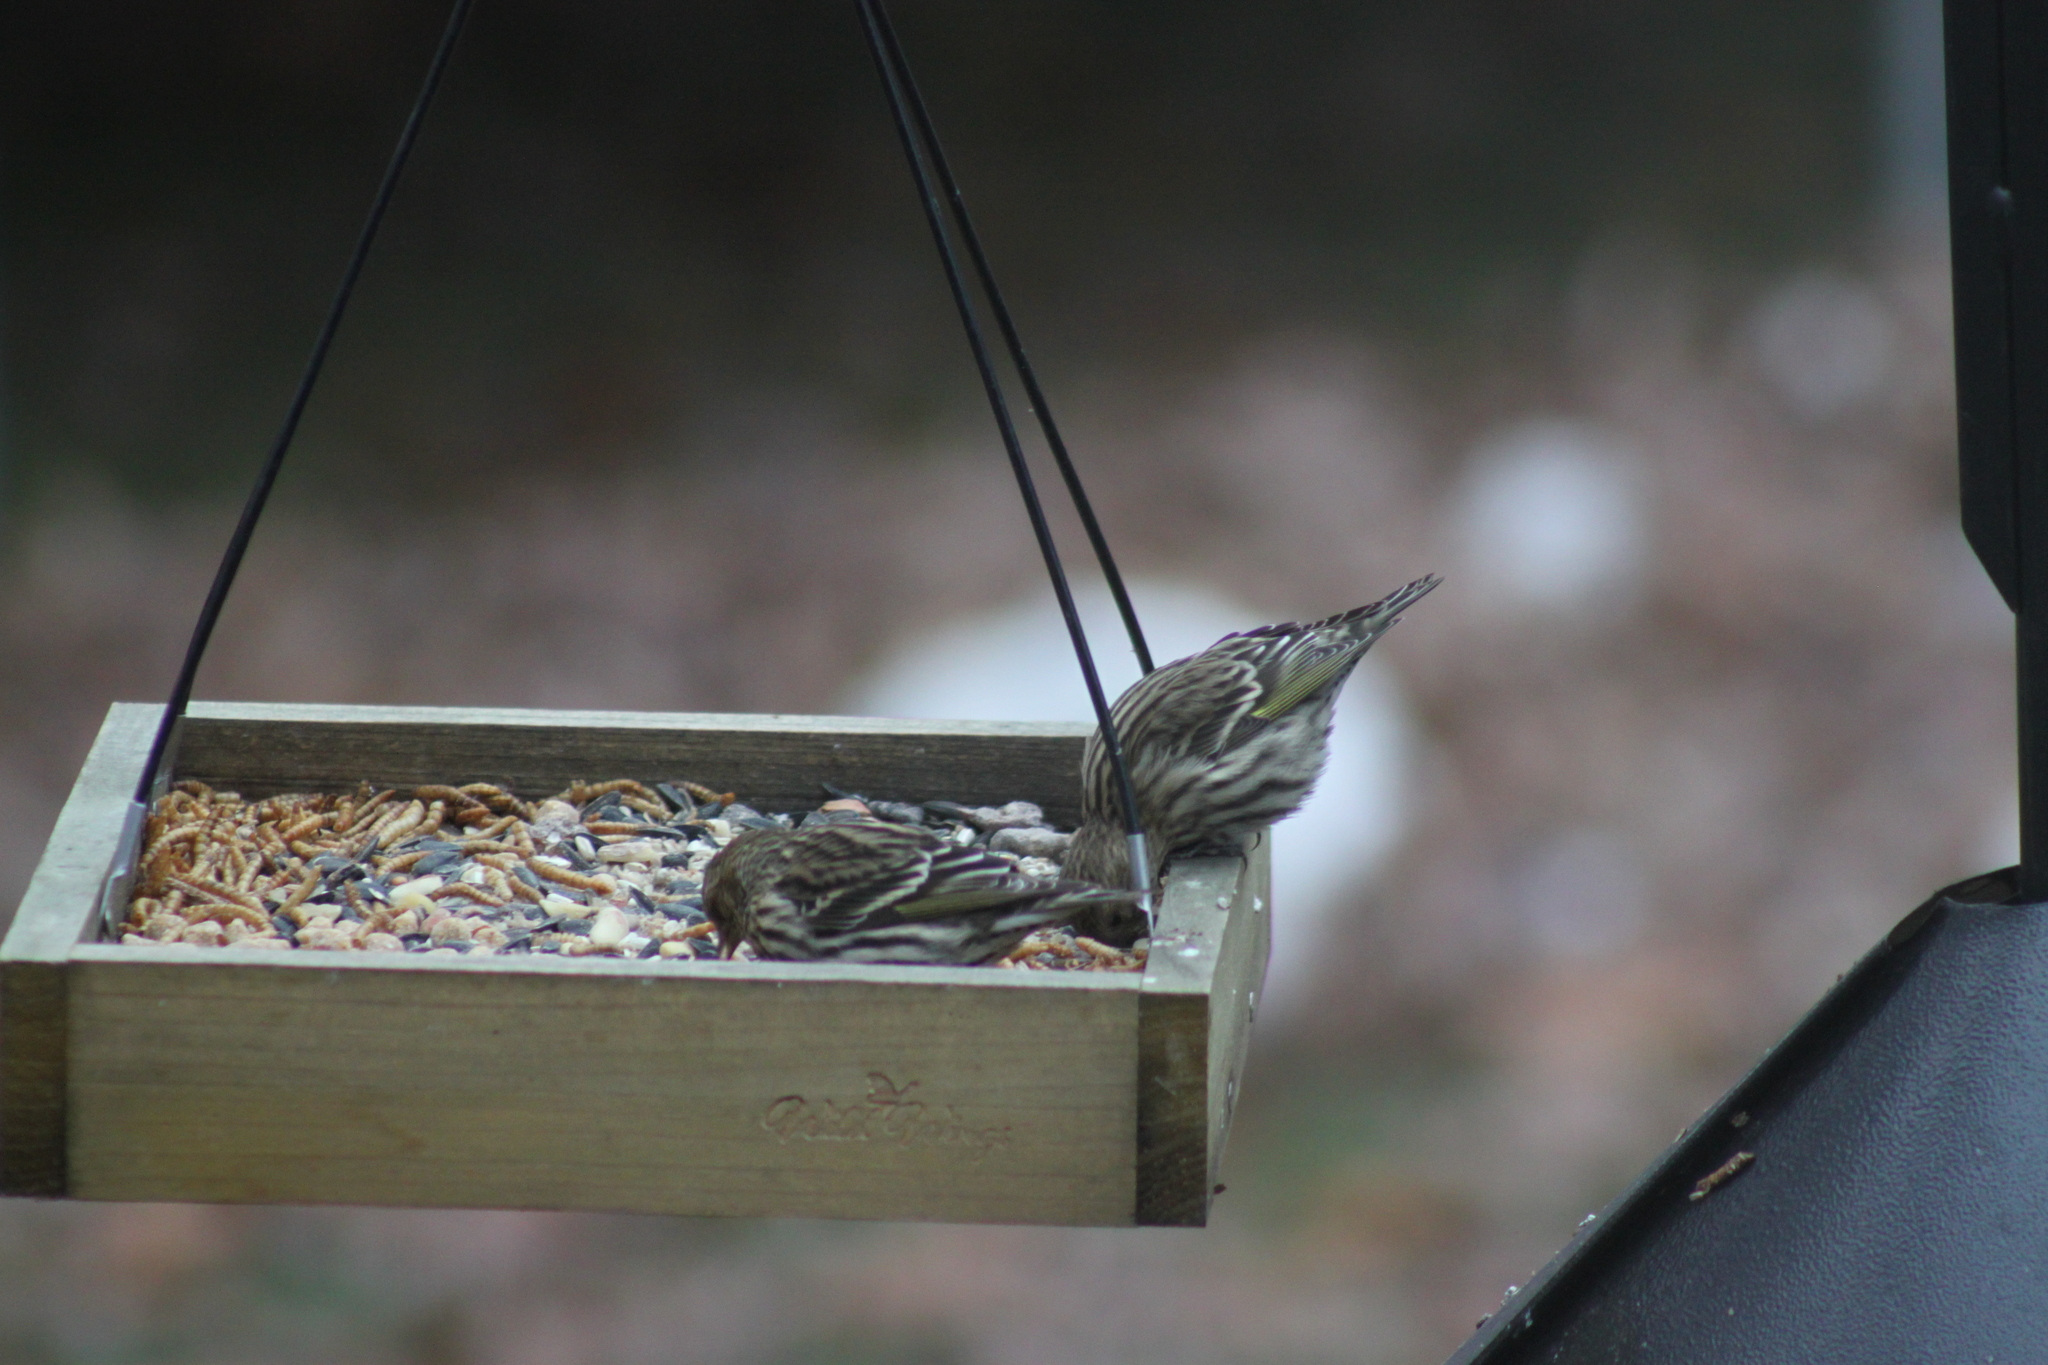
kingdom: Animalia
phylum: Chordata
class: Aves
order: Passeriformes
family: Fringillidae
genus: Spinus
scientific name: Spinus pinus
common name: Pine siskin
